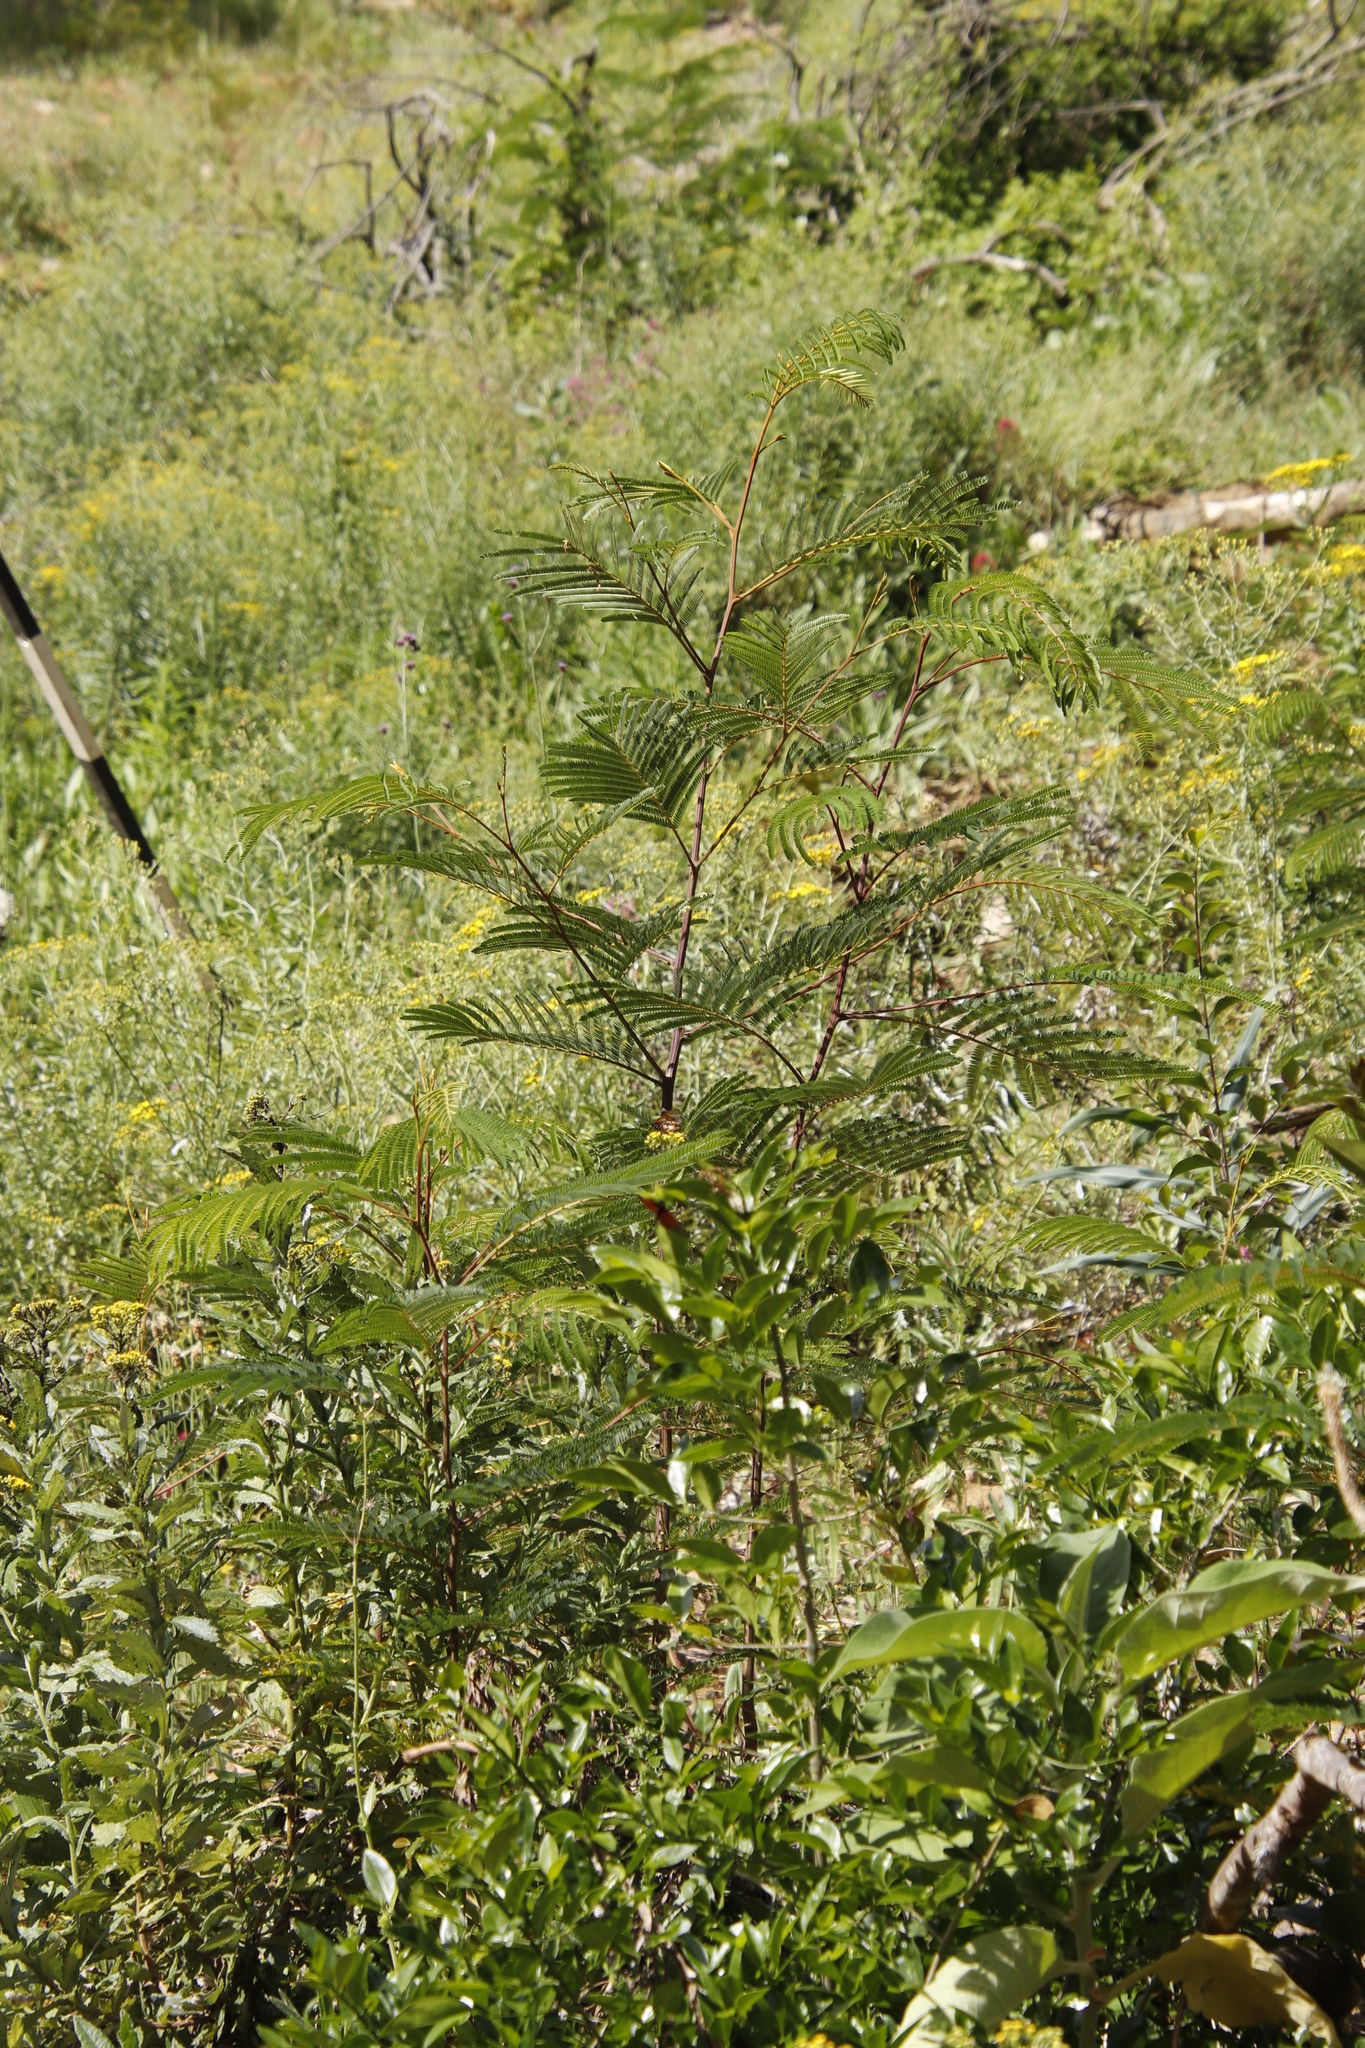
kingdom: Plantae
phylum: Tracheophyta
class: Magnoliopsida
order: Fabales
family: Fabaceae
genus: Acacia
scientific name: Acacia mearnsii
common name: Black wattle
